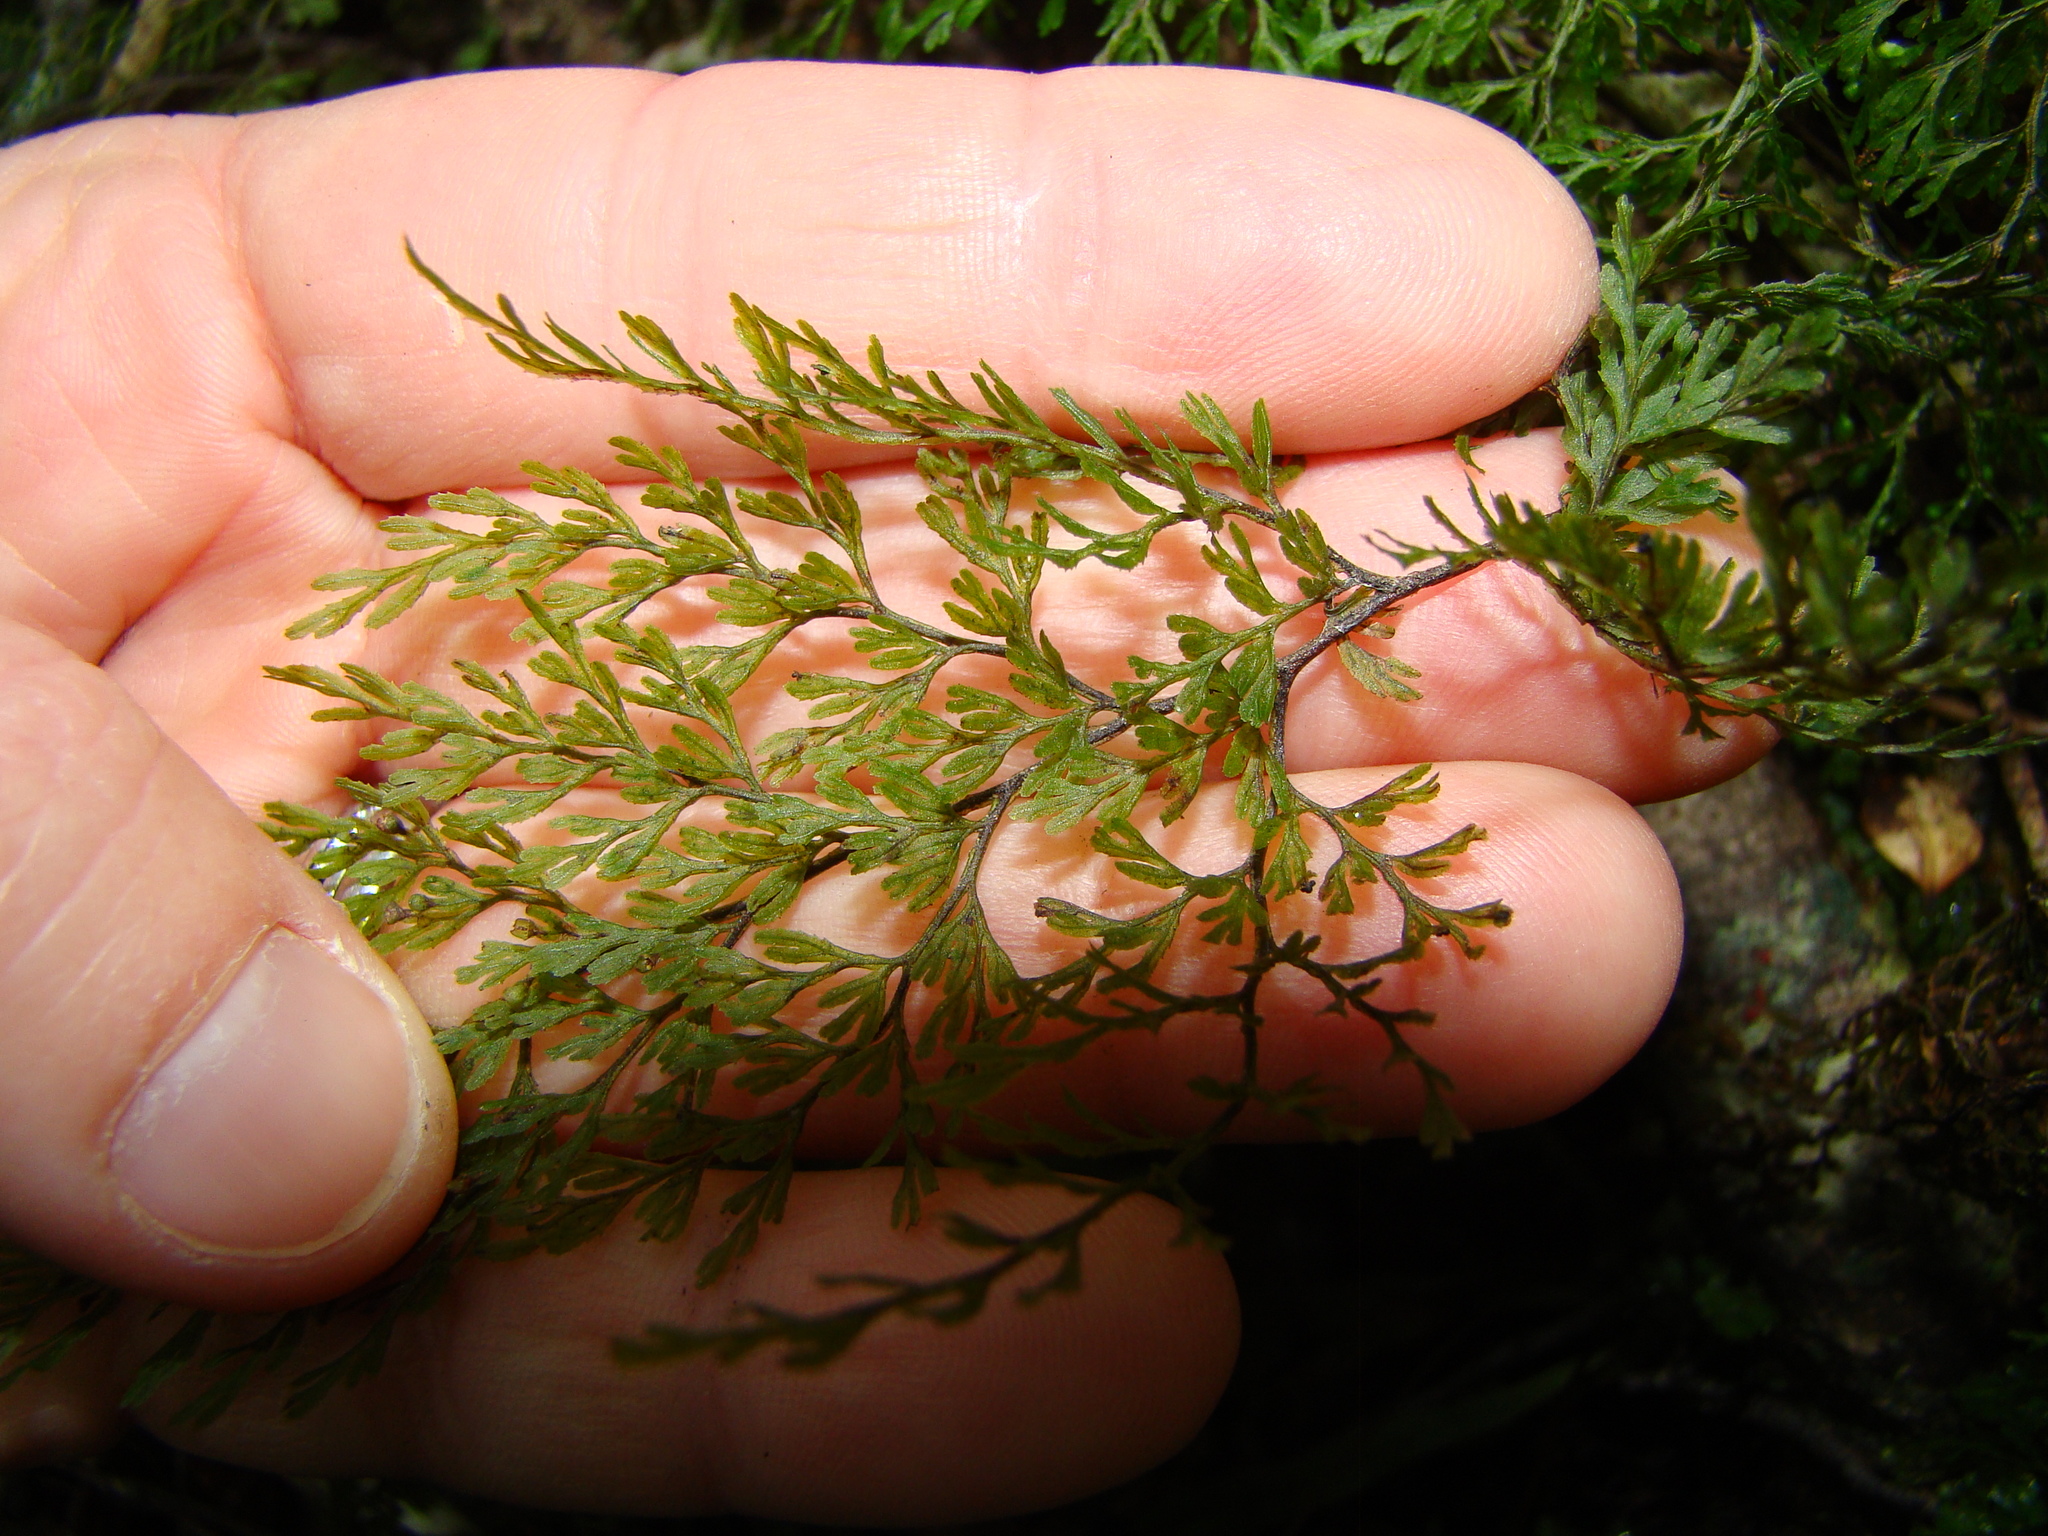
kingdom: Plantae
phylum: Tracheophyta
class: Polypodiopsida
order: Hymenophyllales
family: Hymenophyllaceae
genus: Hymenophyllum
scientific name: Hymenophyllum bivalve
